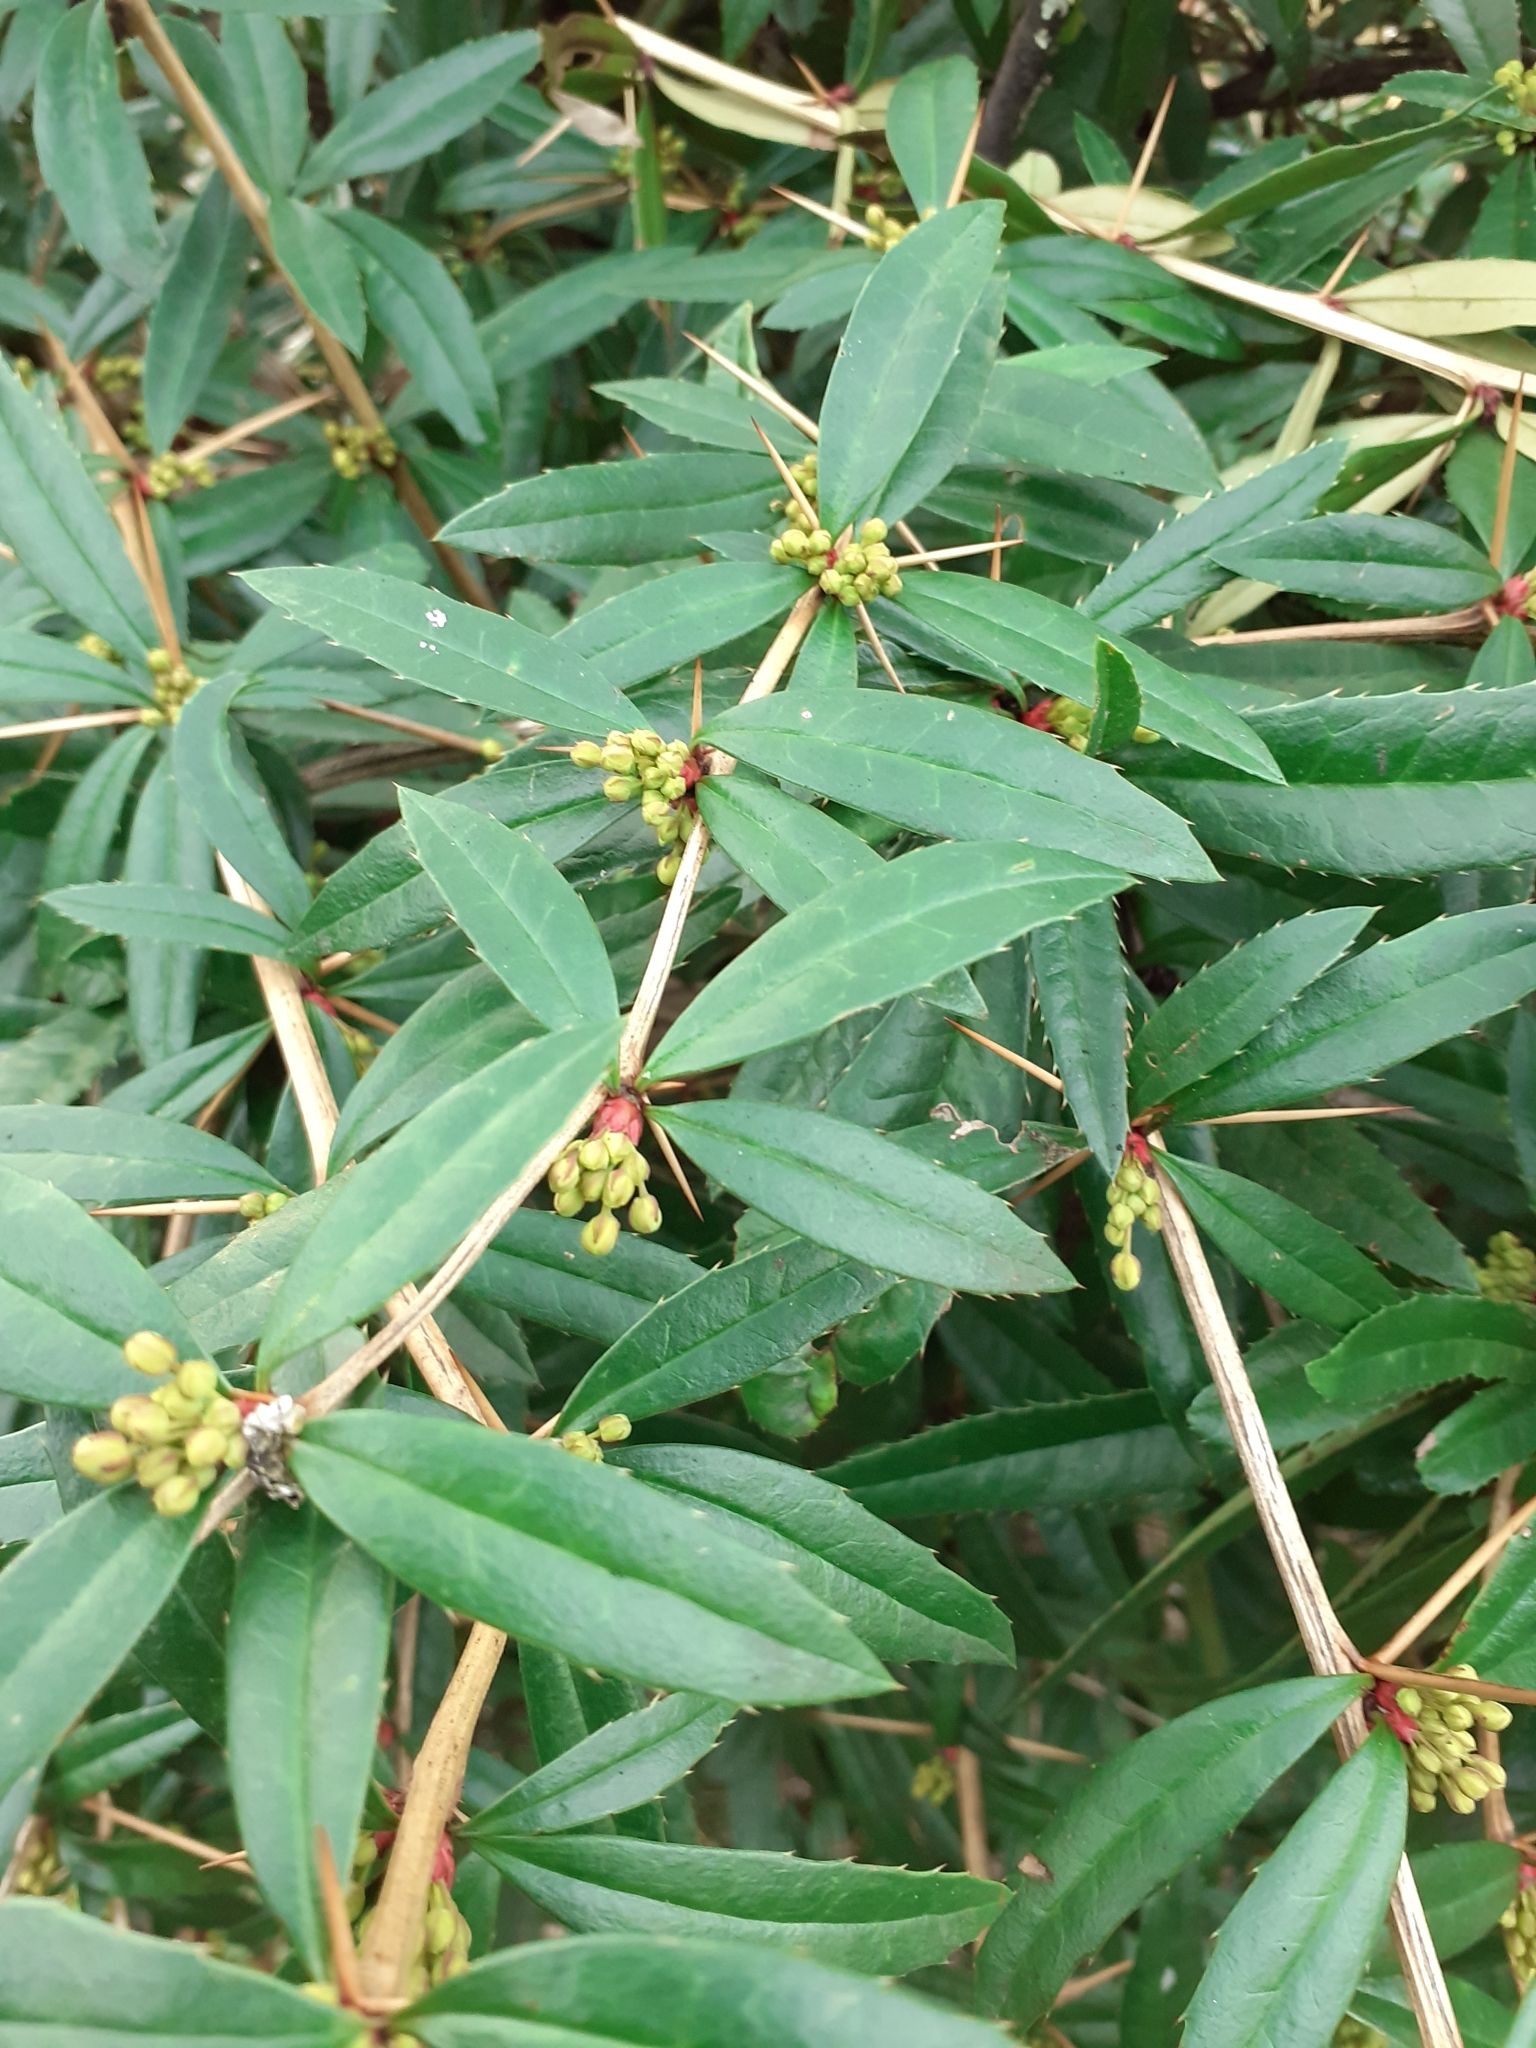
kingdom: Plantae
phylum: Tracheophyta
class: Magnoliopsida
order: Ranunculales
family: Berberidaceae
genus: Berberis
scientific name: Berberis julianae
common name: Wintergreen barberry
